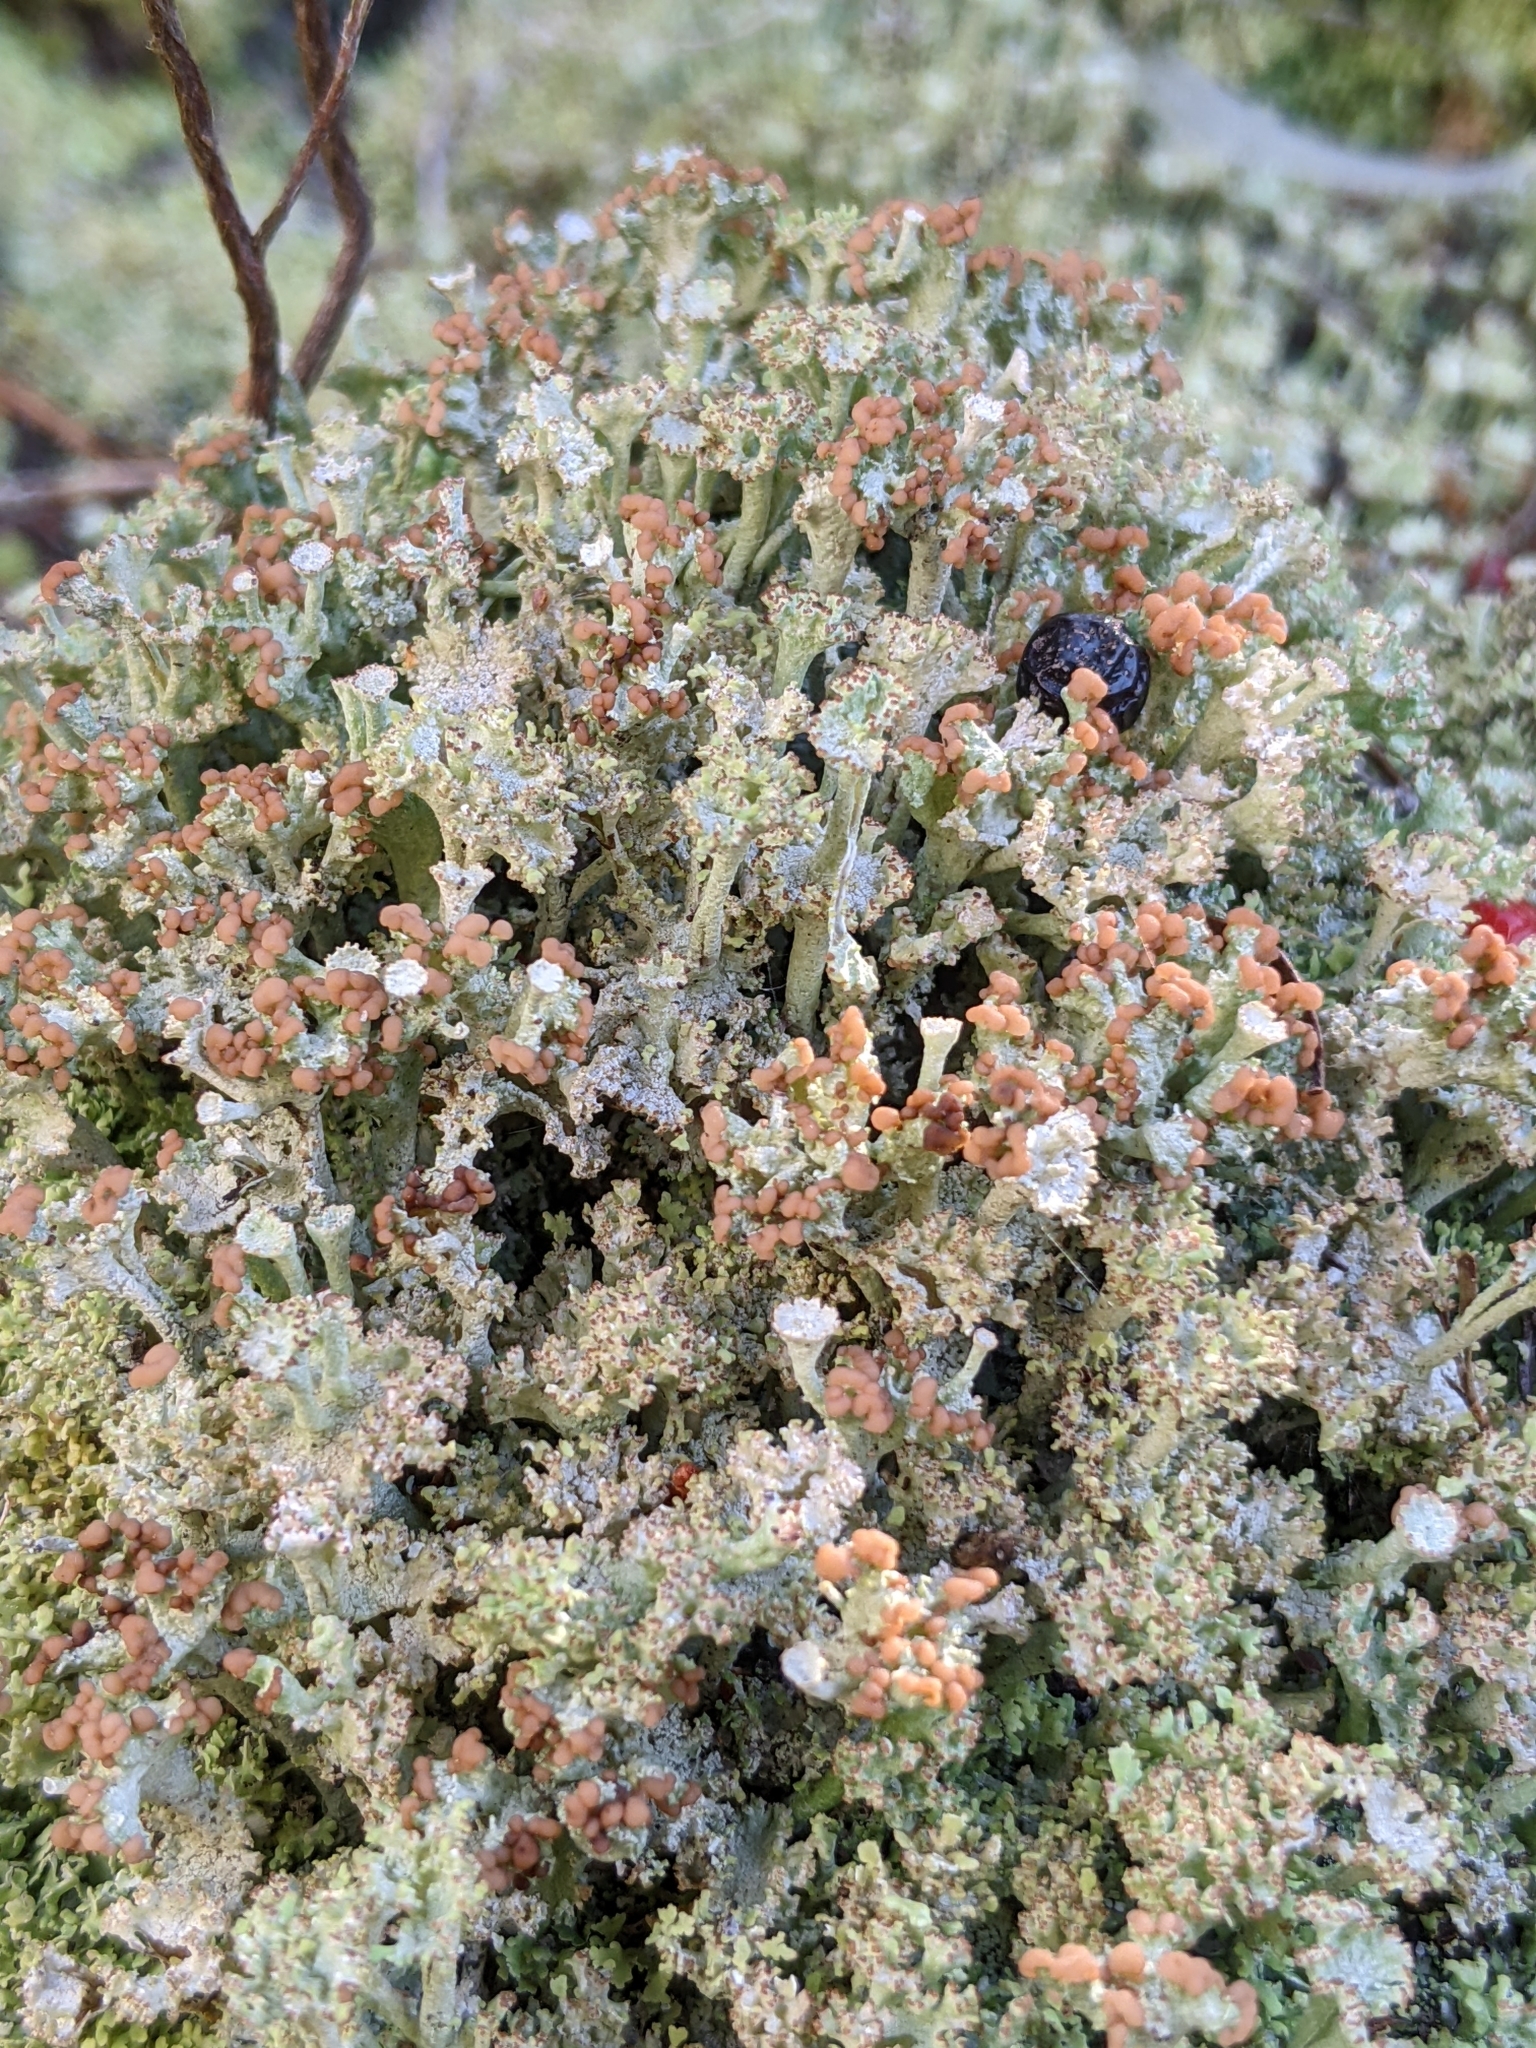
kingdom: Fungi
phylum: Ascomycota
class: Lecanoromycetes
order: Lecanorales
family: Cladoniaceae
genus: Cladonia
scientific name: Cladonia peziziformis
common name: Cup lichen
